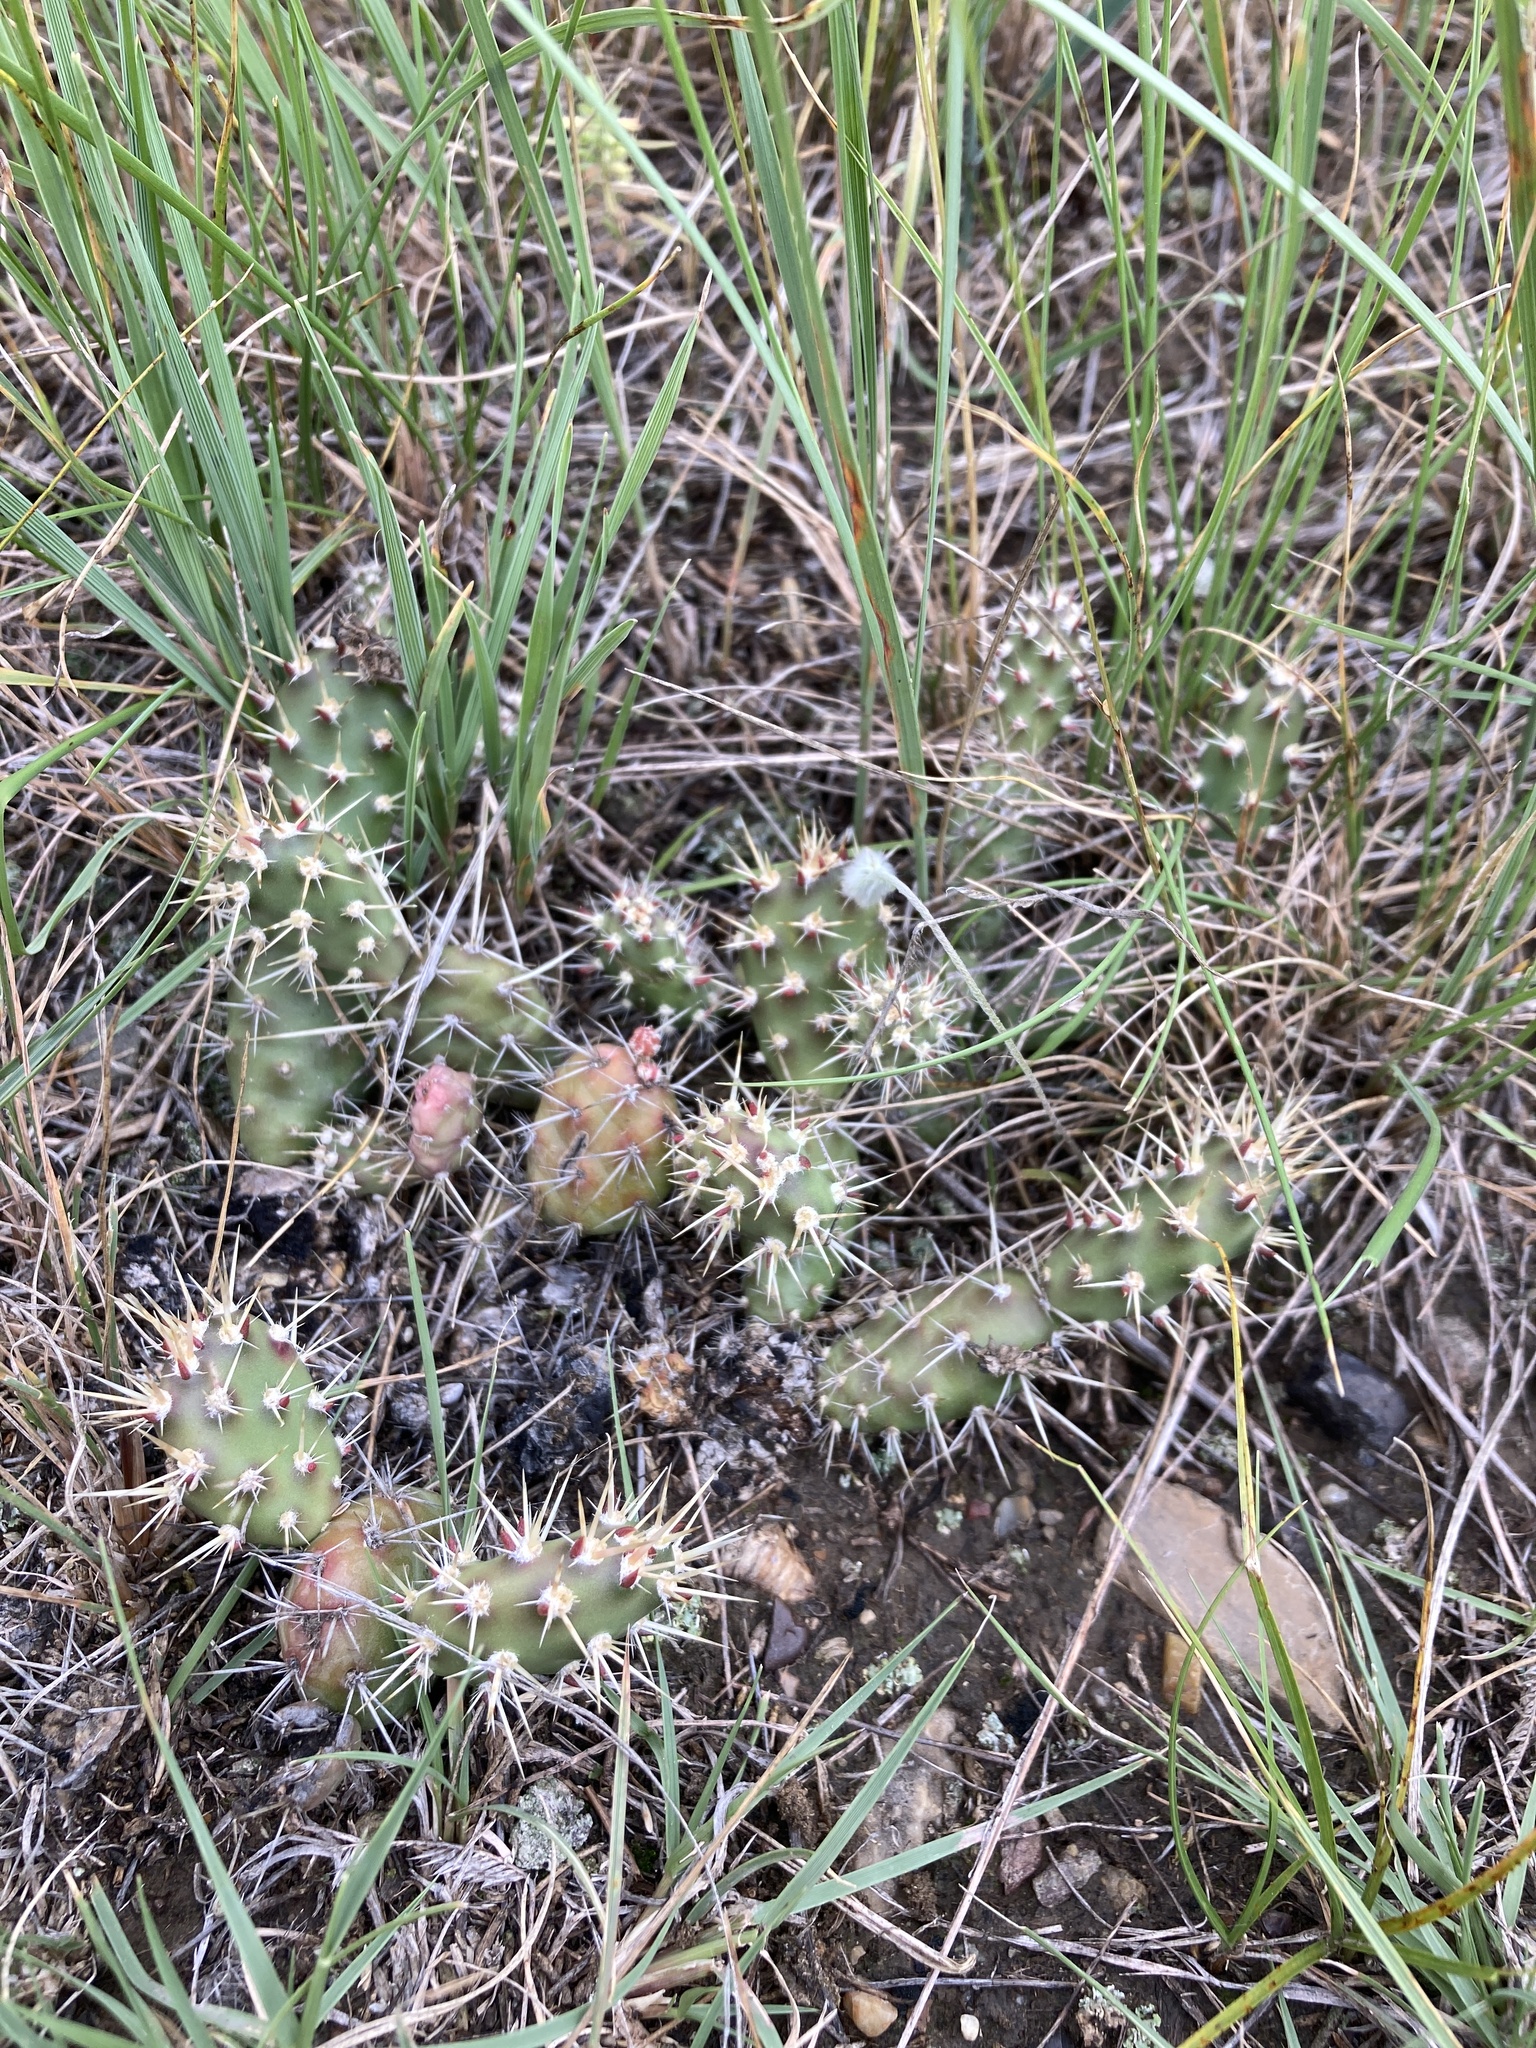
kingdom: Plantae
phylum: Tracheophyta
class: Magnoliopsida
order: Caryophyllales
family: Cactaceae
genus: Opuntia
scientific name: Opuntia fragilis
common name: Brittle cactus
